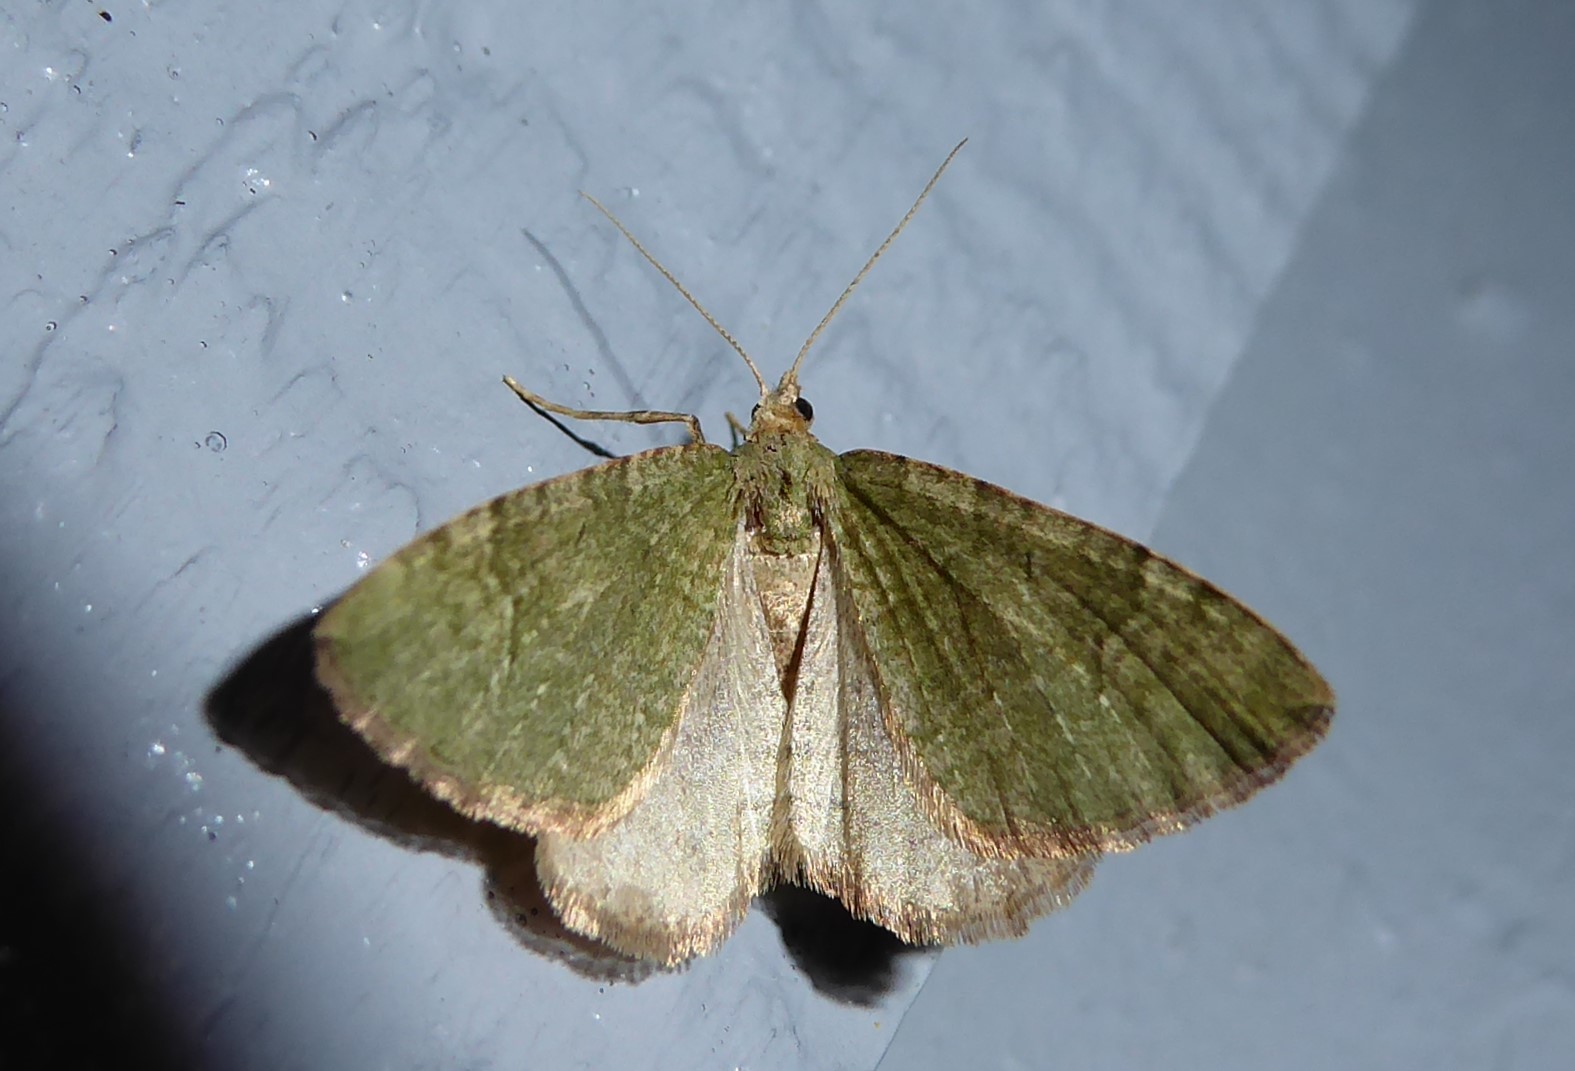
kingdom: Animalia
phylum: Arthropoda
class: Insecta
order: Lepidoptera
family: Geometridae
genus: Epyaxa
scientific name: Epyaxa rosearia
